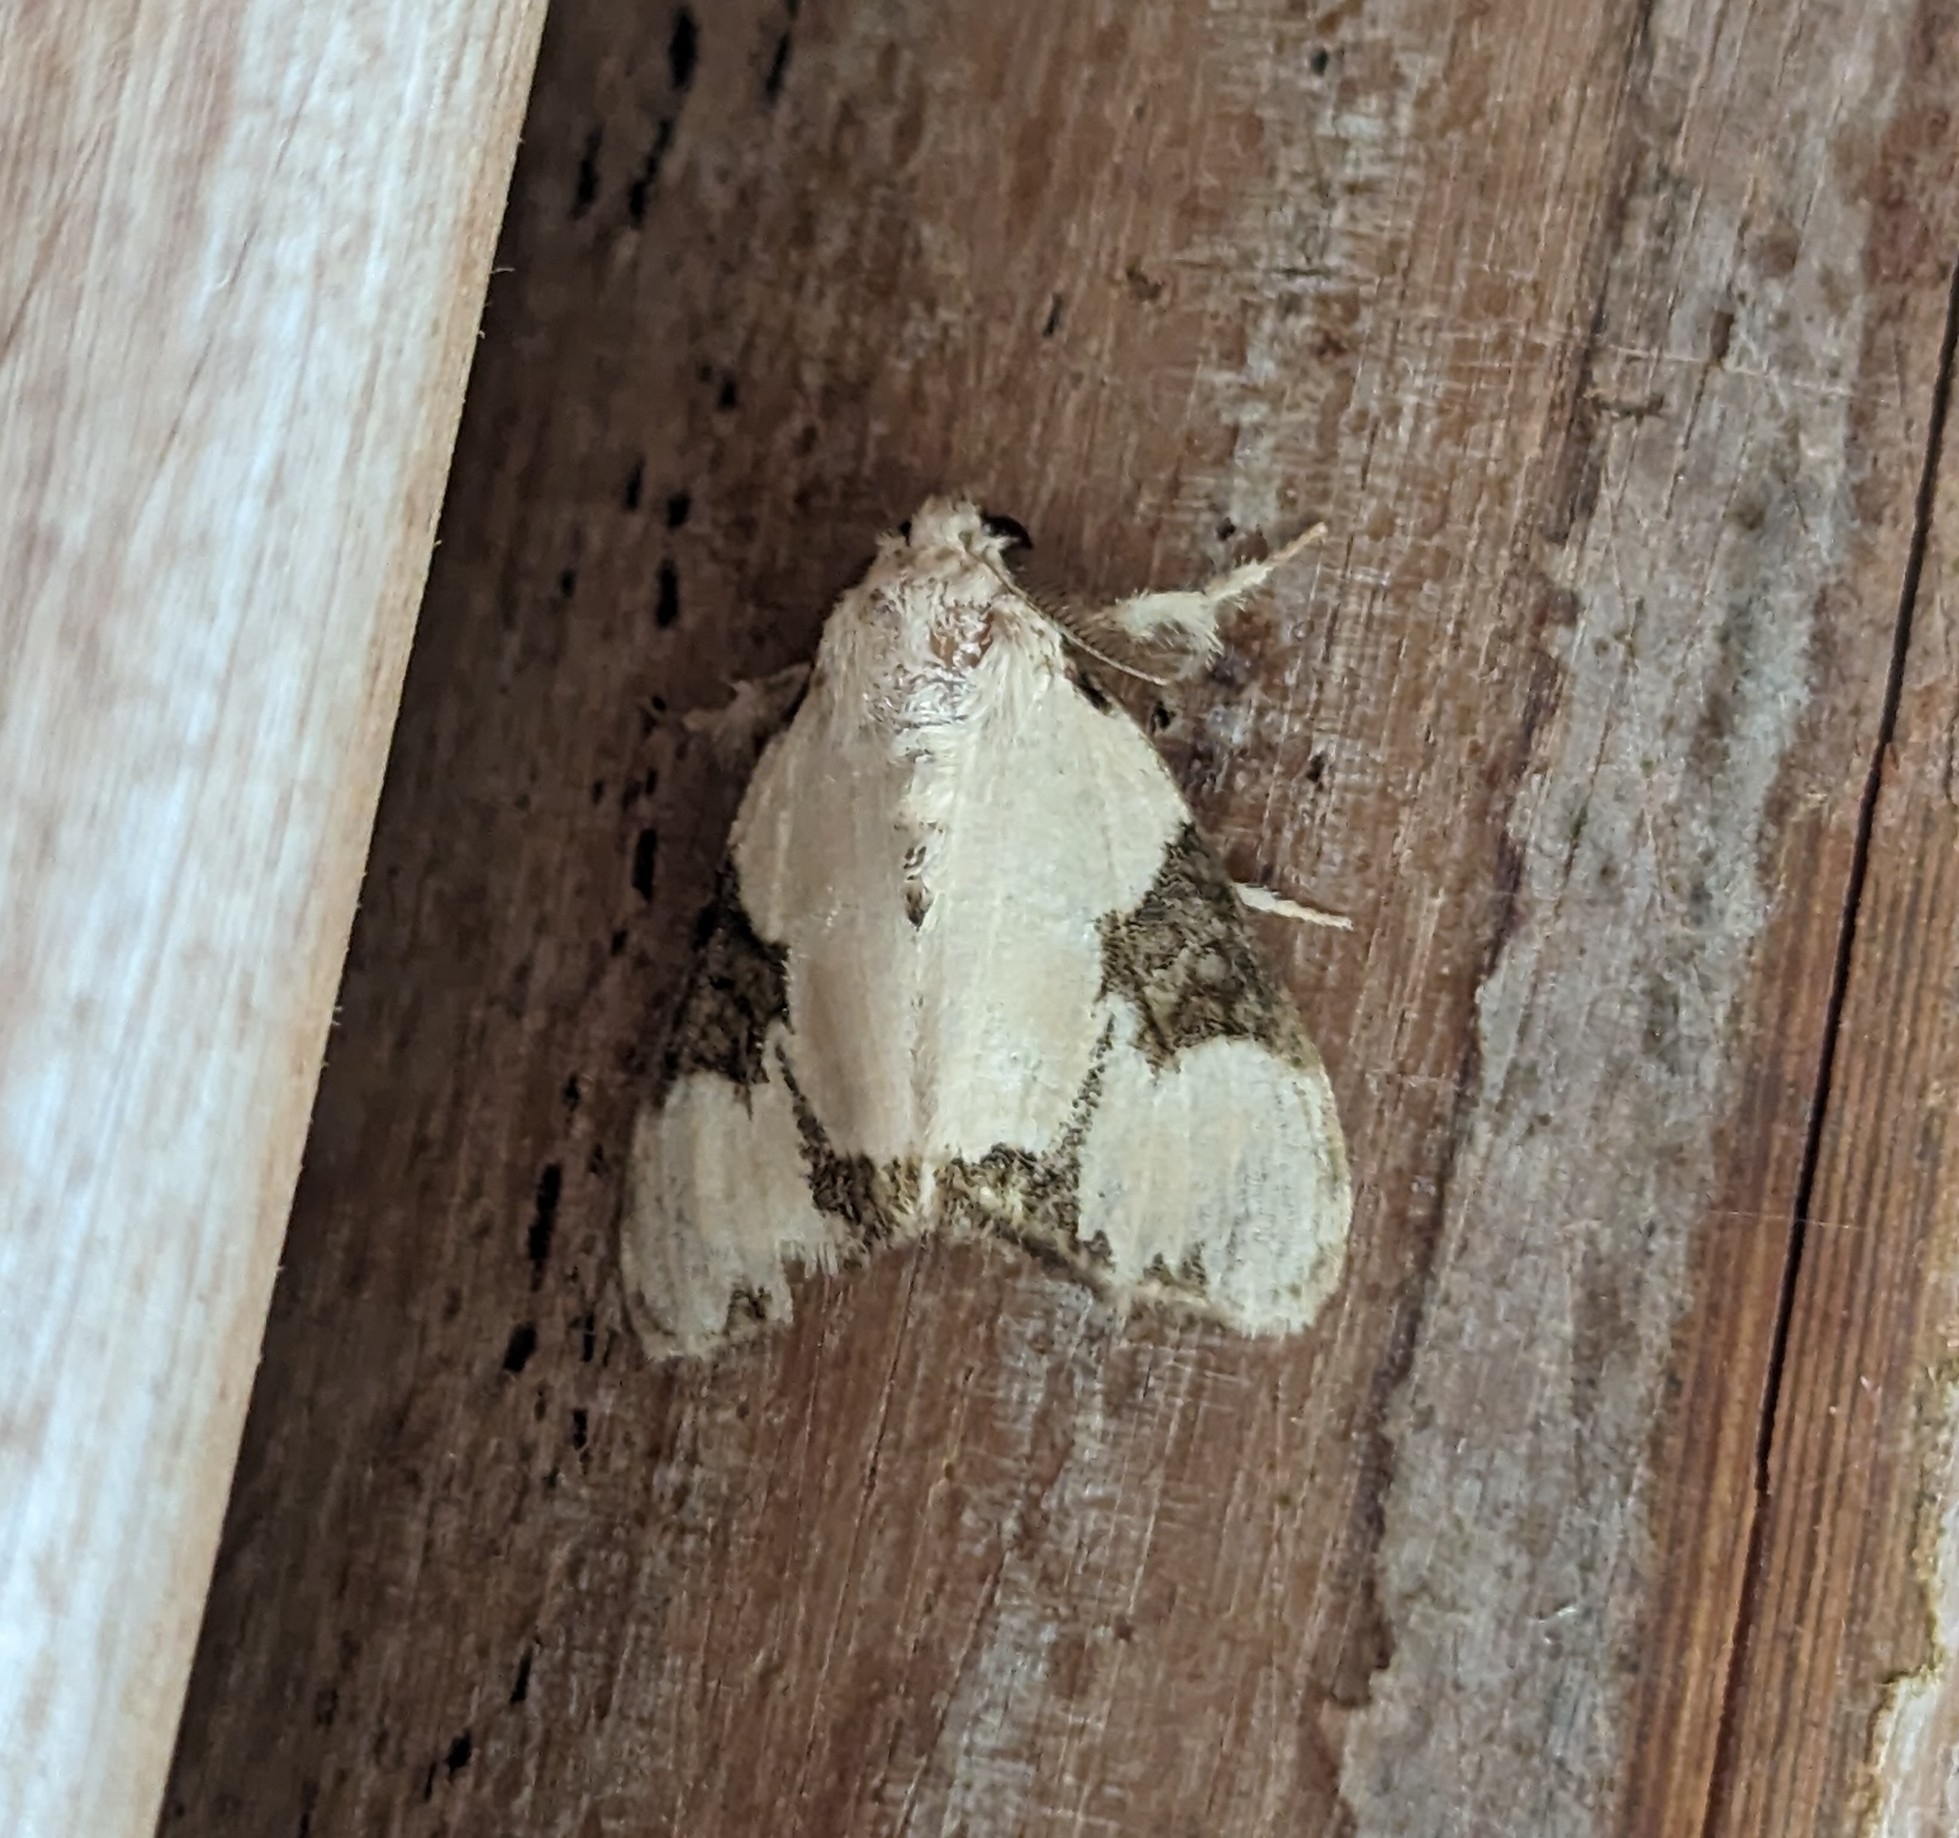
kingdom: Animalia
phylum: Arthropoda
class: Insecta
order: Lepidoptera
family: Erebidae
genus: Euproctis
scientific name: Euproctis plagiata
